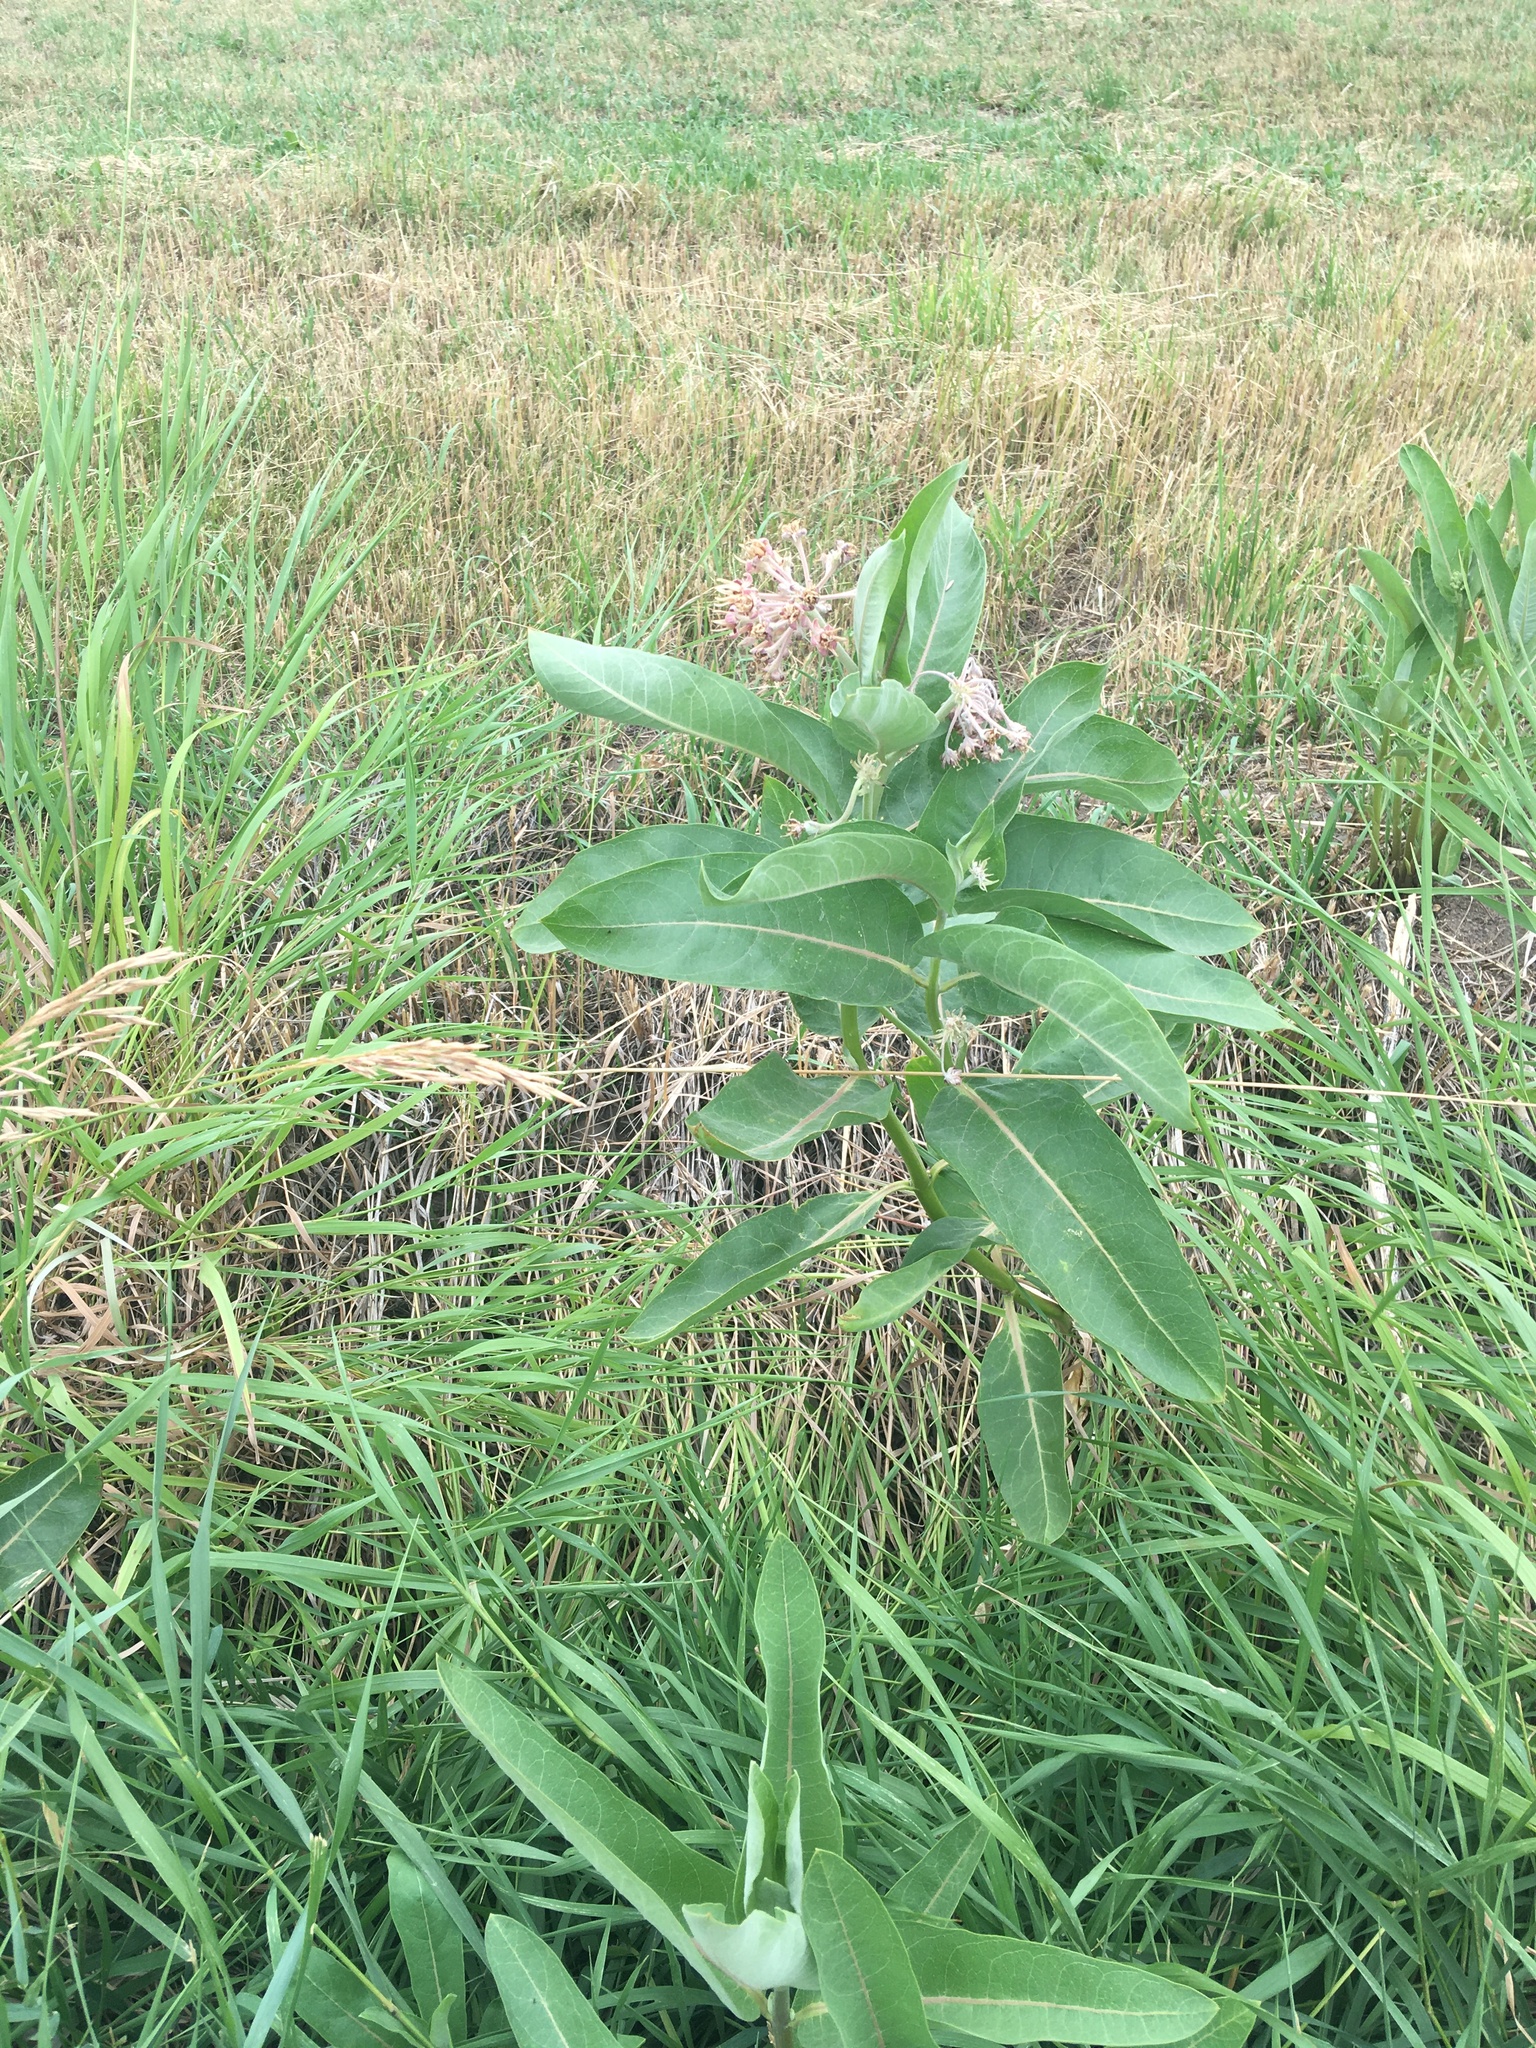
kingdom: Plantae
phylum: Tracheophyta
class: Magnoliopsida
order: Gentianales
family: Apocynaceae
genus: Asclepias
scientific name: Asclepias speciosa
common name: Showy milkweed
